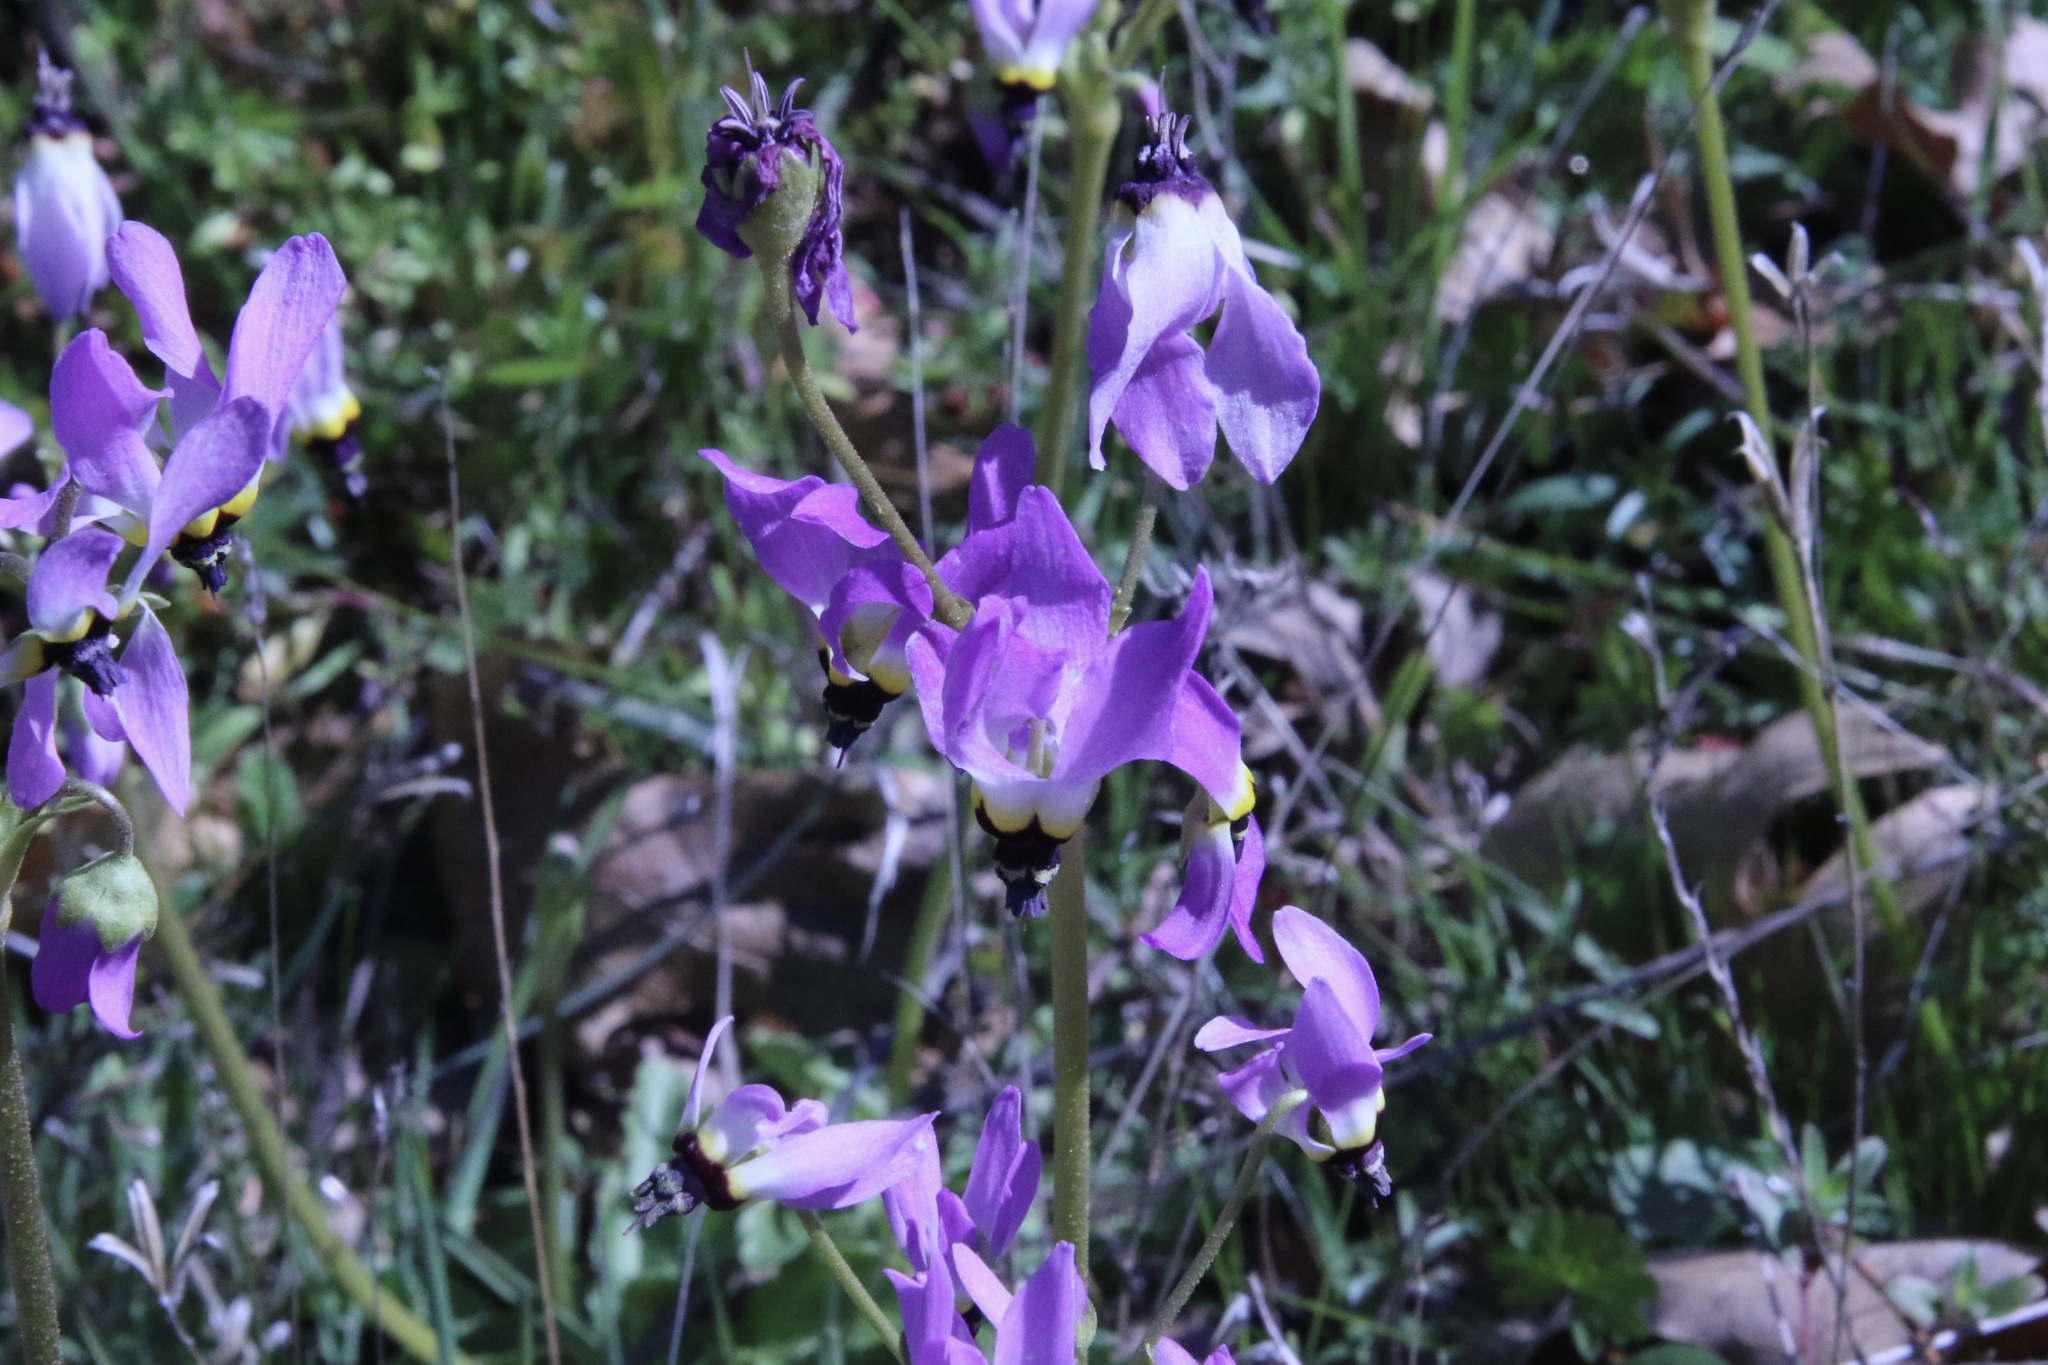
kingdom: Plantae
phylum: Tracheophyta
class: Magnoliopsida
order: Ericales
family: Primulaceae
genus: Dodecatheon
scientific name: Dodecatheon clevelandii
